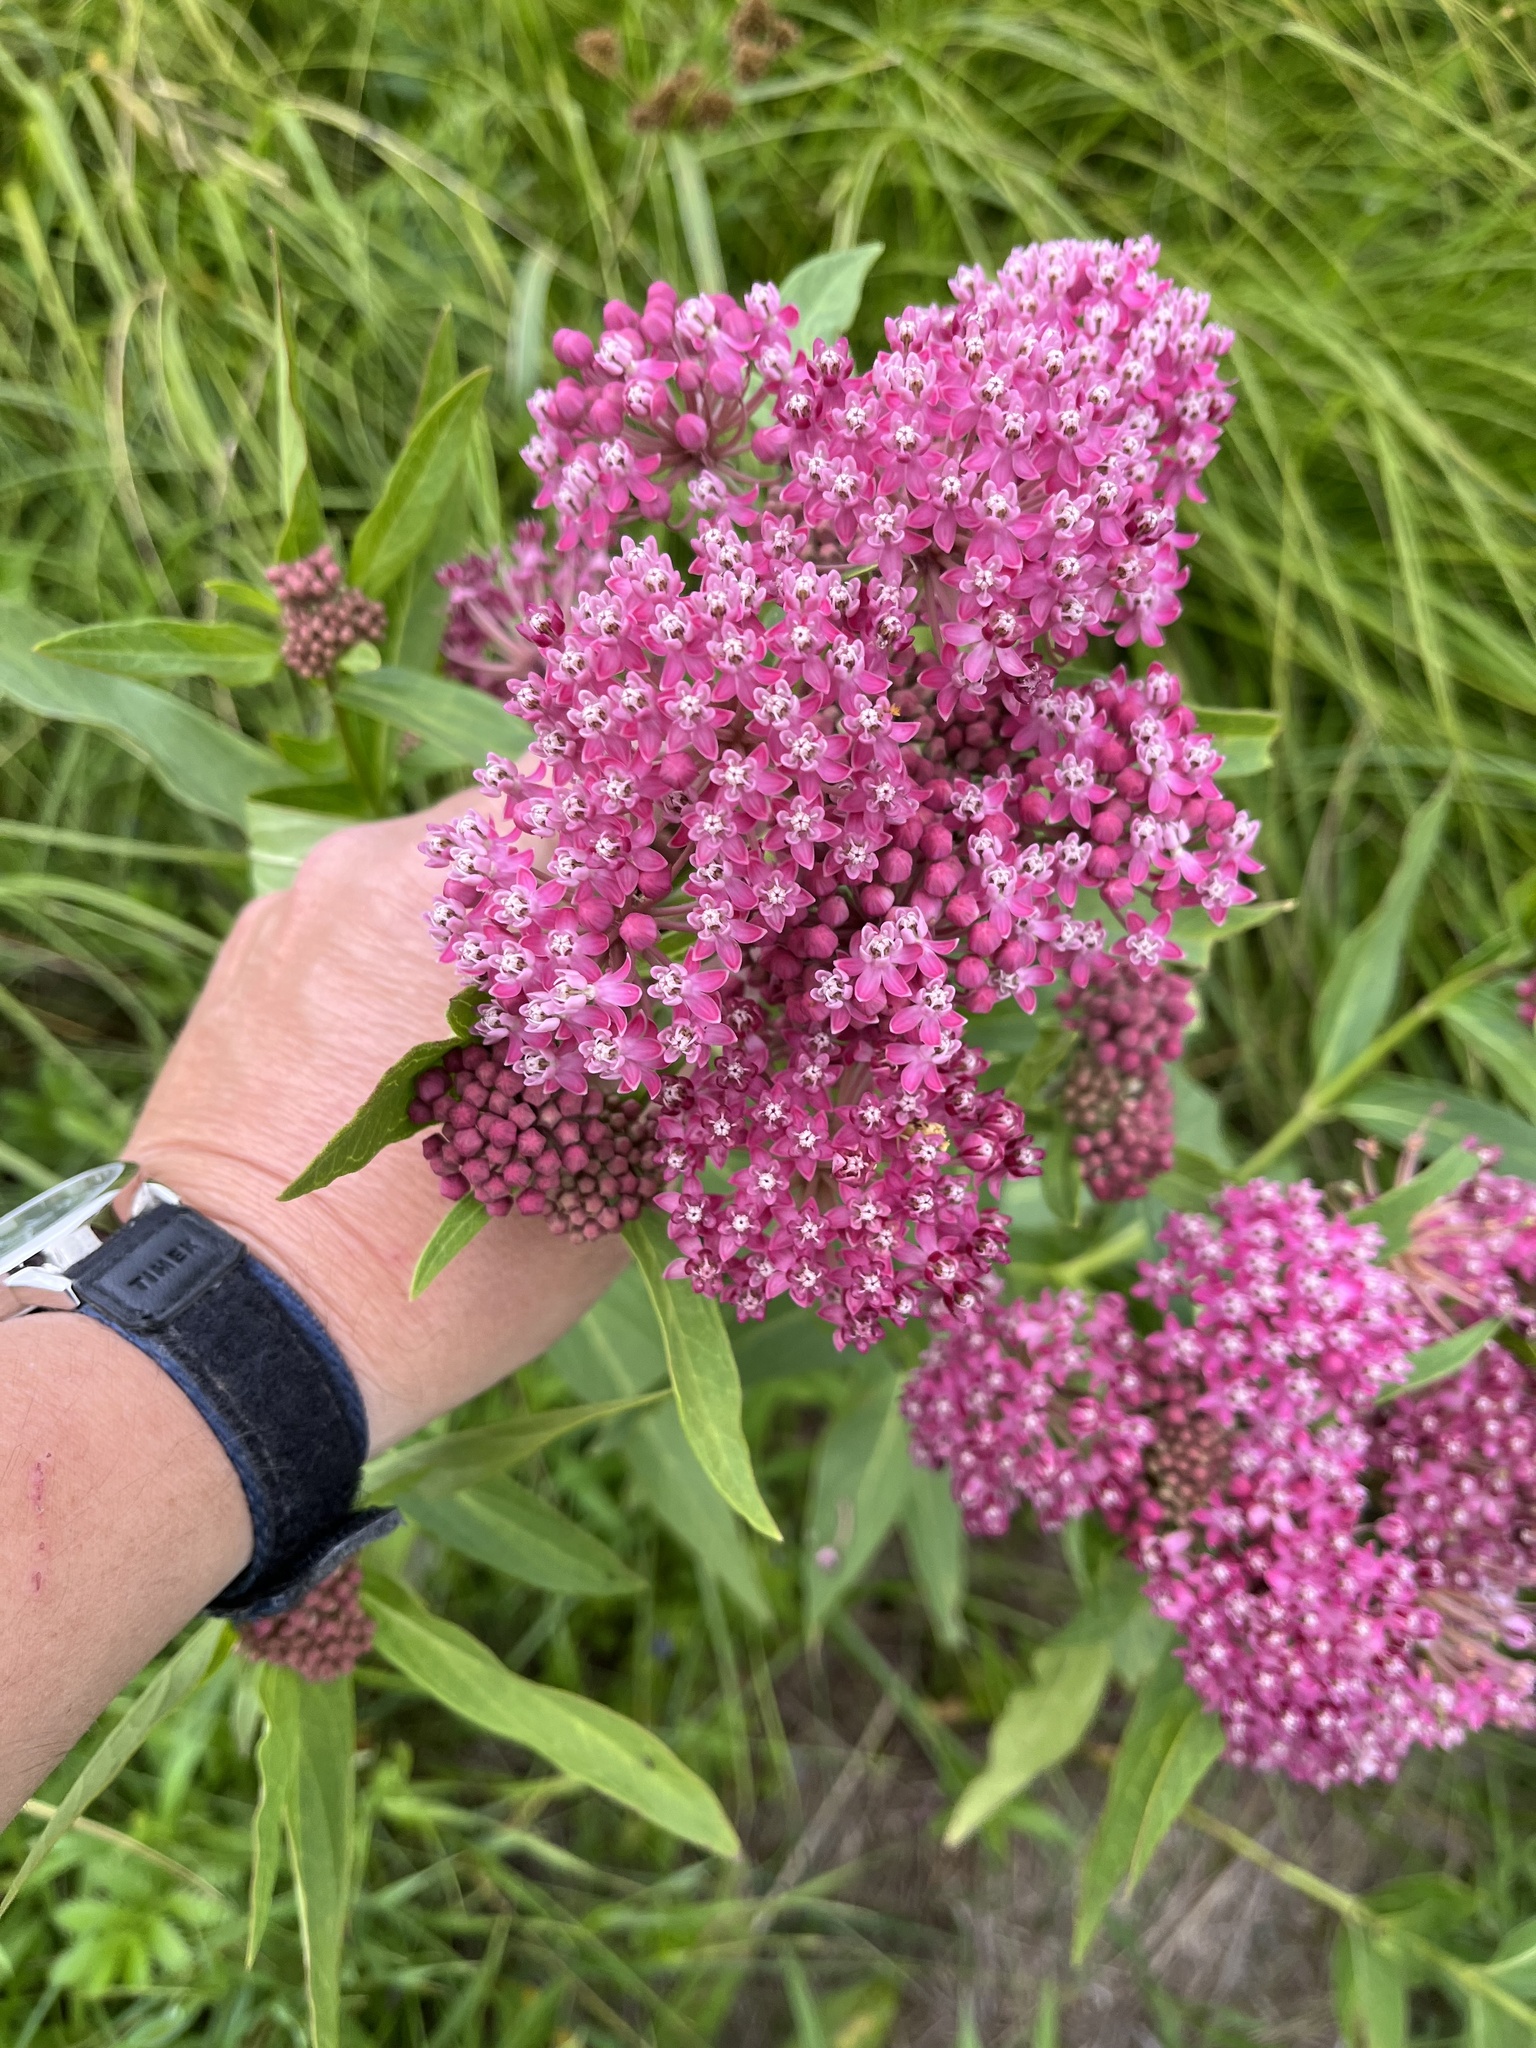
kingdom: Plantae
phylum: Tracheophyta
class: Magnoliopsida
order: Gentianales
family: Apocynaceae
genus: Asclepias
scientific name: Asclepias incarnata
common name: Swamp milkweed
